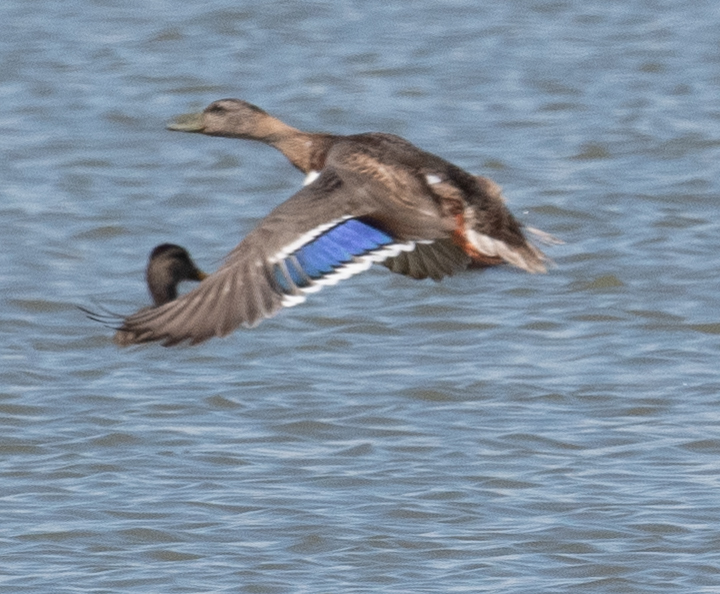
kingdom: Animalia
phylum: Chordata
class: Aves
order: Anseriformes
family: Anatidae
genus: Anas
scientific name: Anas platyrhynchos
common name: Mallard
